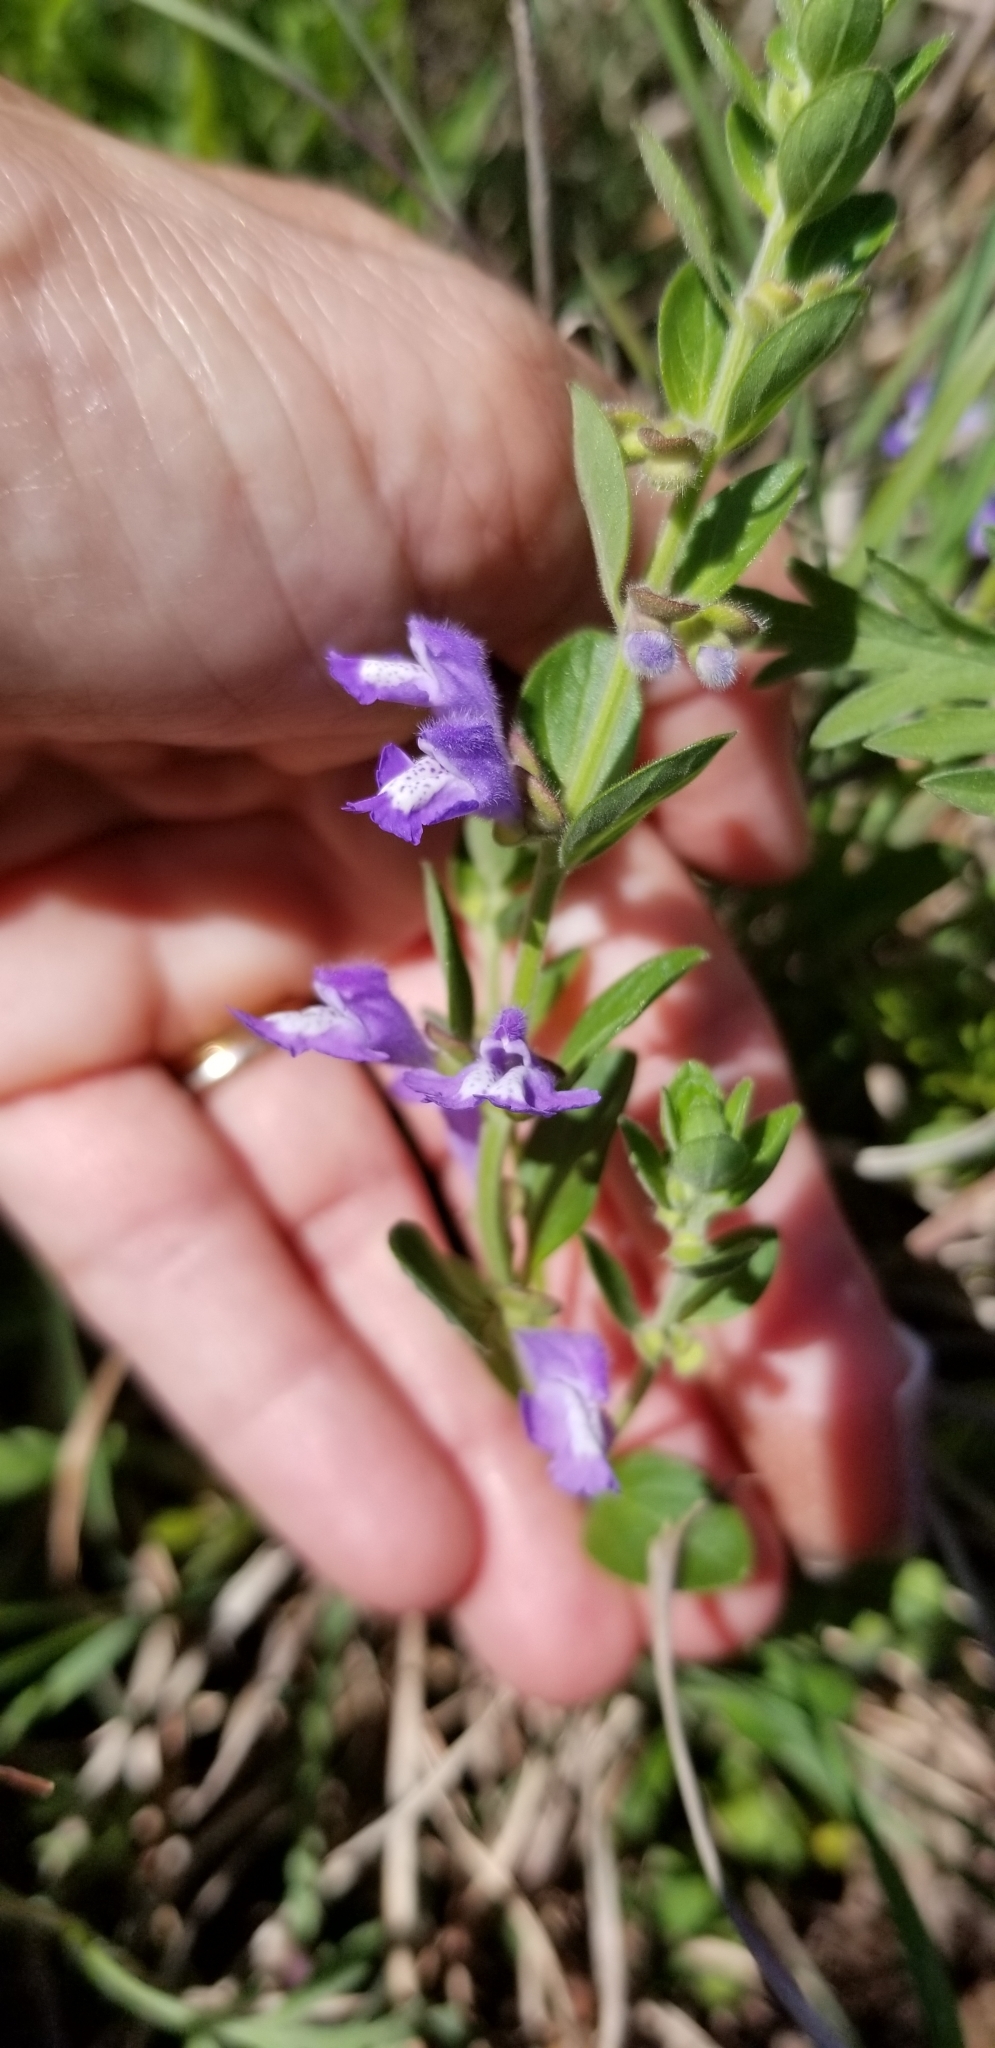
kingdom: Plantae
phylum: Tracheophyta
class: Magnoliopsida
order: Lamiales
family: Lamiaceae
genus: Scutellaria
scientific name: Scutellaria drummondii
